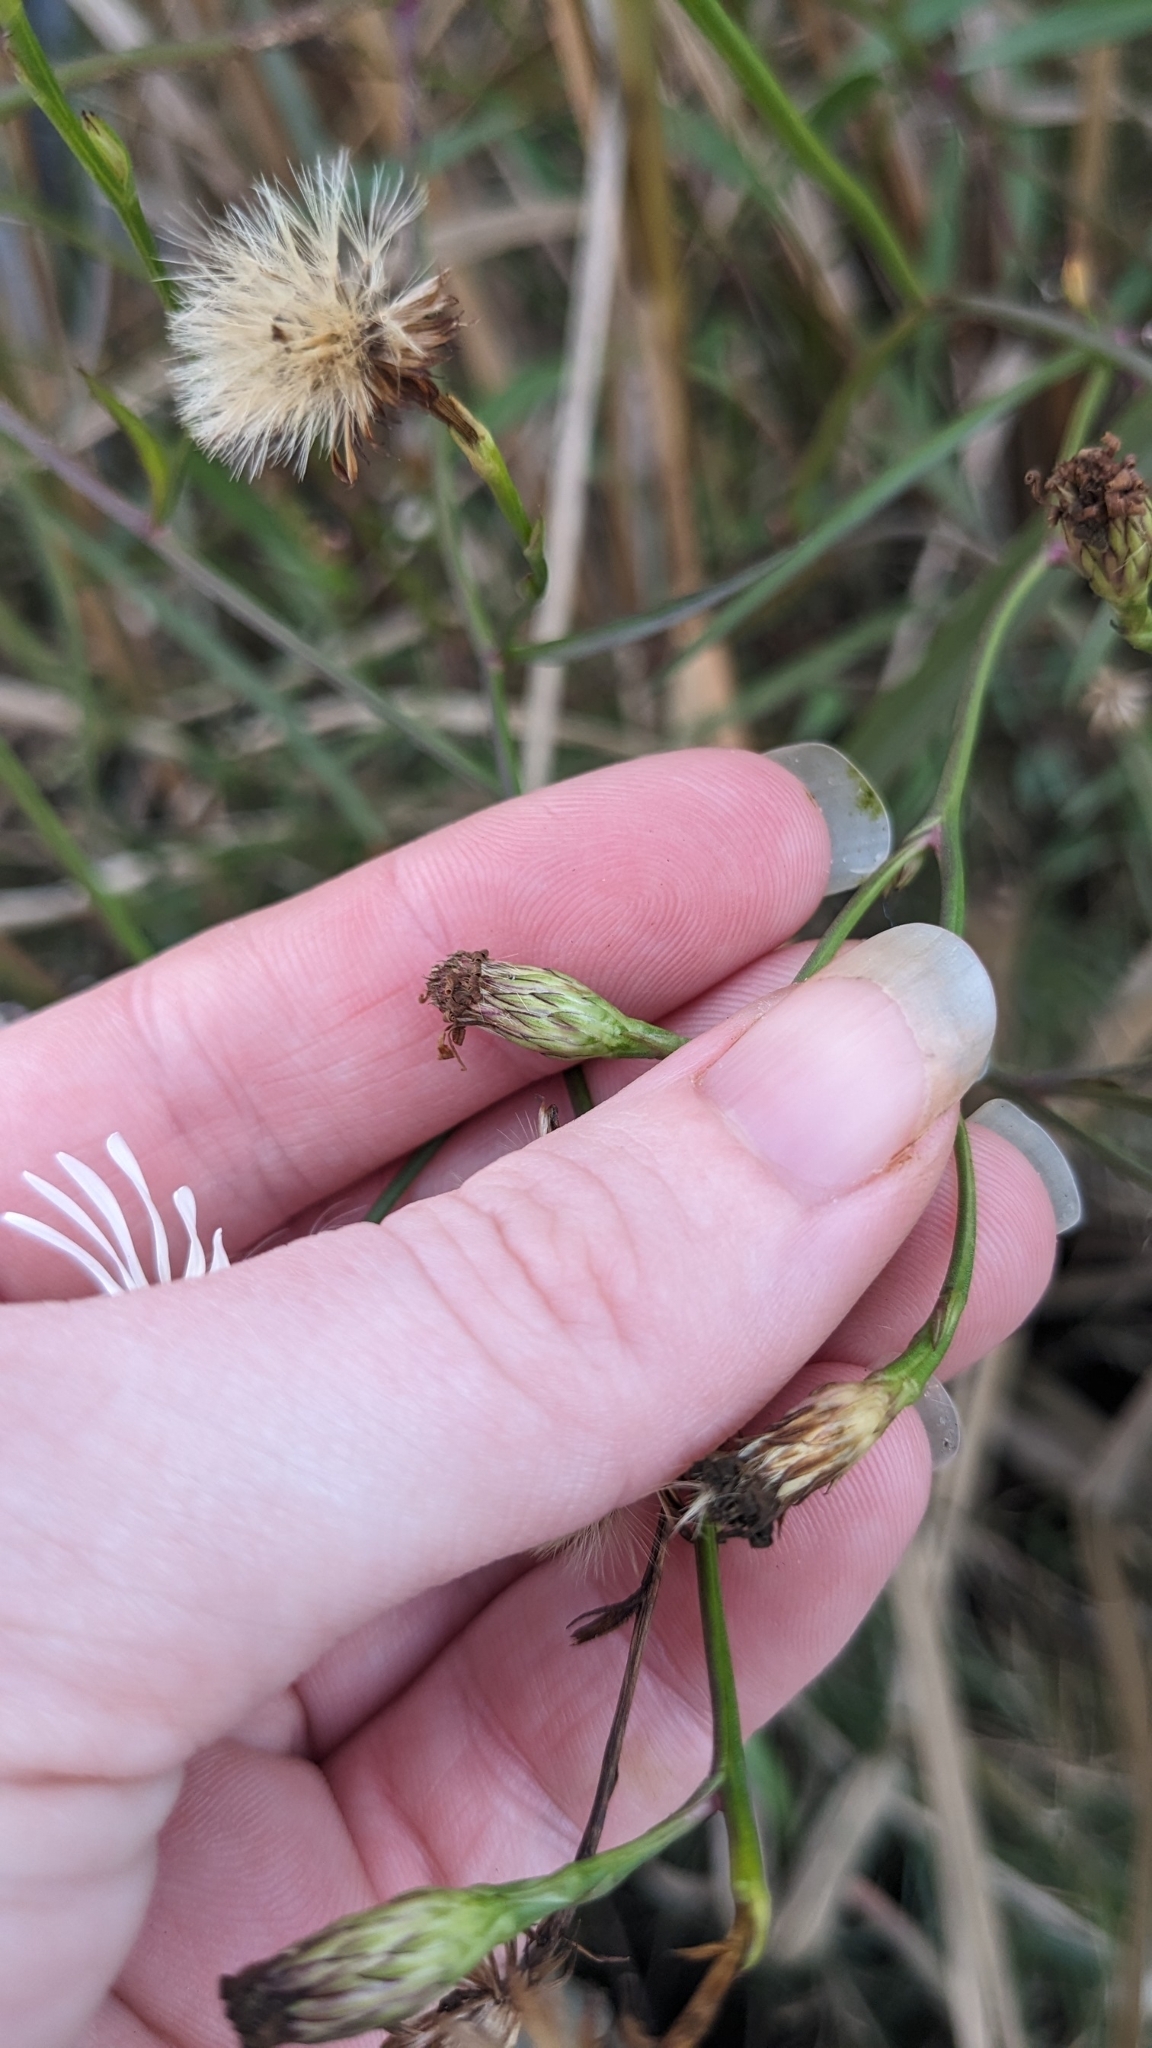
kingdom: Plantae
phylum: Tracheophyta
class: Magnoliopsida
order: Asterales
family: Asteraceae
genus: Symphyotrichum
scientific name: Symphyotrichum tenuifolium
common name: Perennial salt-marsh aster
